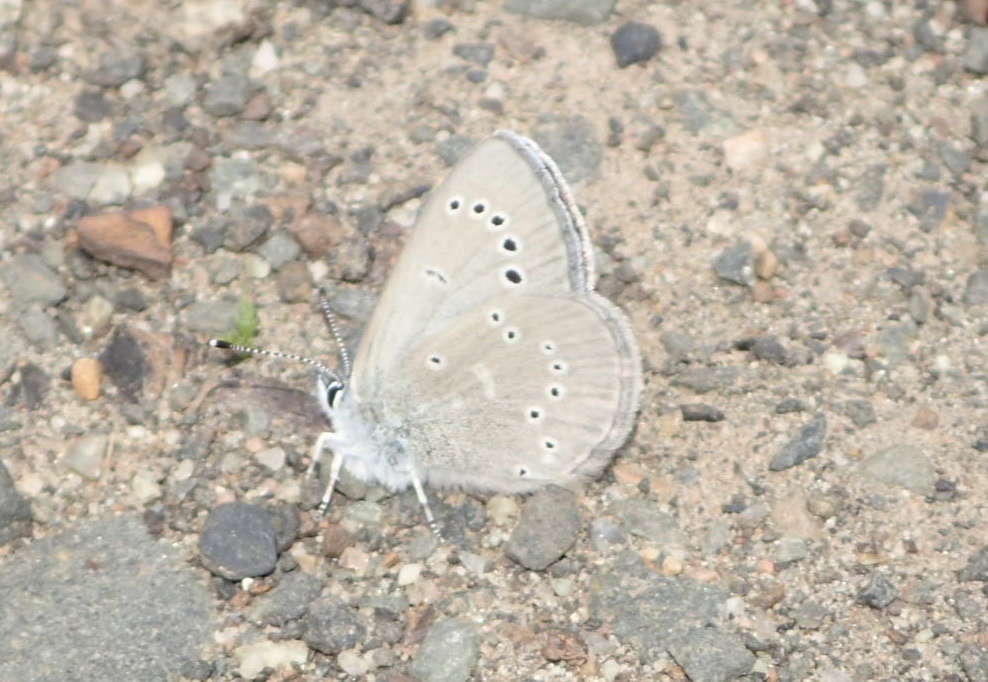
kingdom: Animalia
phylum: Arthropoda
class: Insecta
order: Lepidoptera
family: Lycaenidae
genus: Glaucopsyche
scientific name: Glaucopsyche lygdamus
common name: Silvery blue
